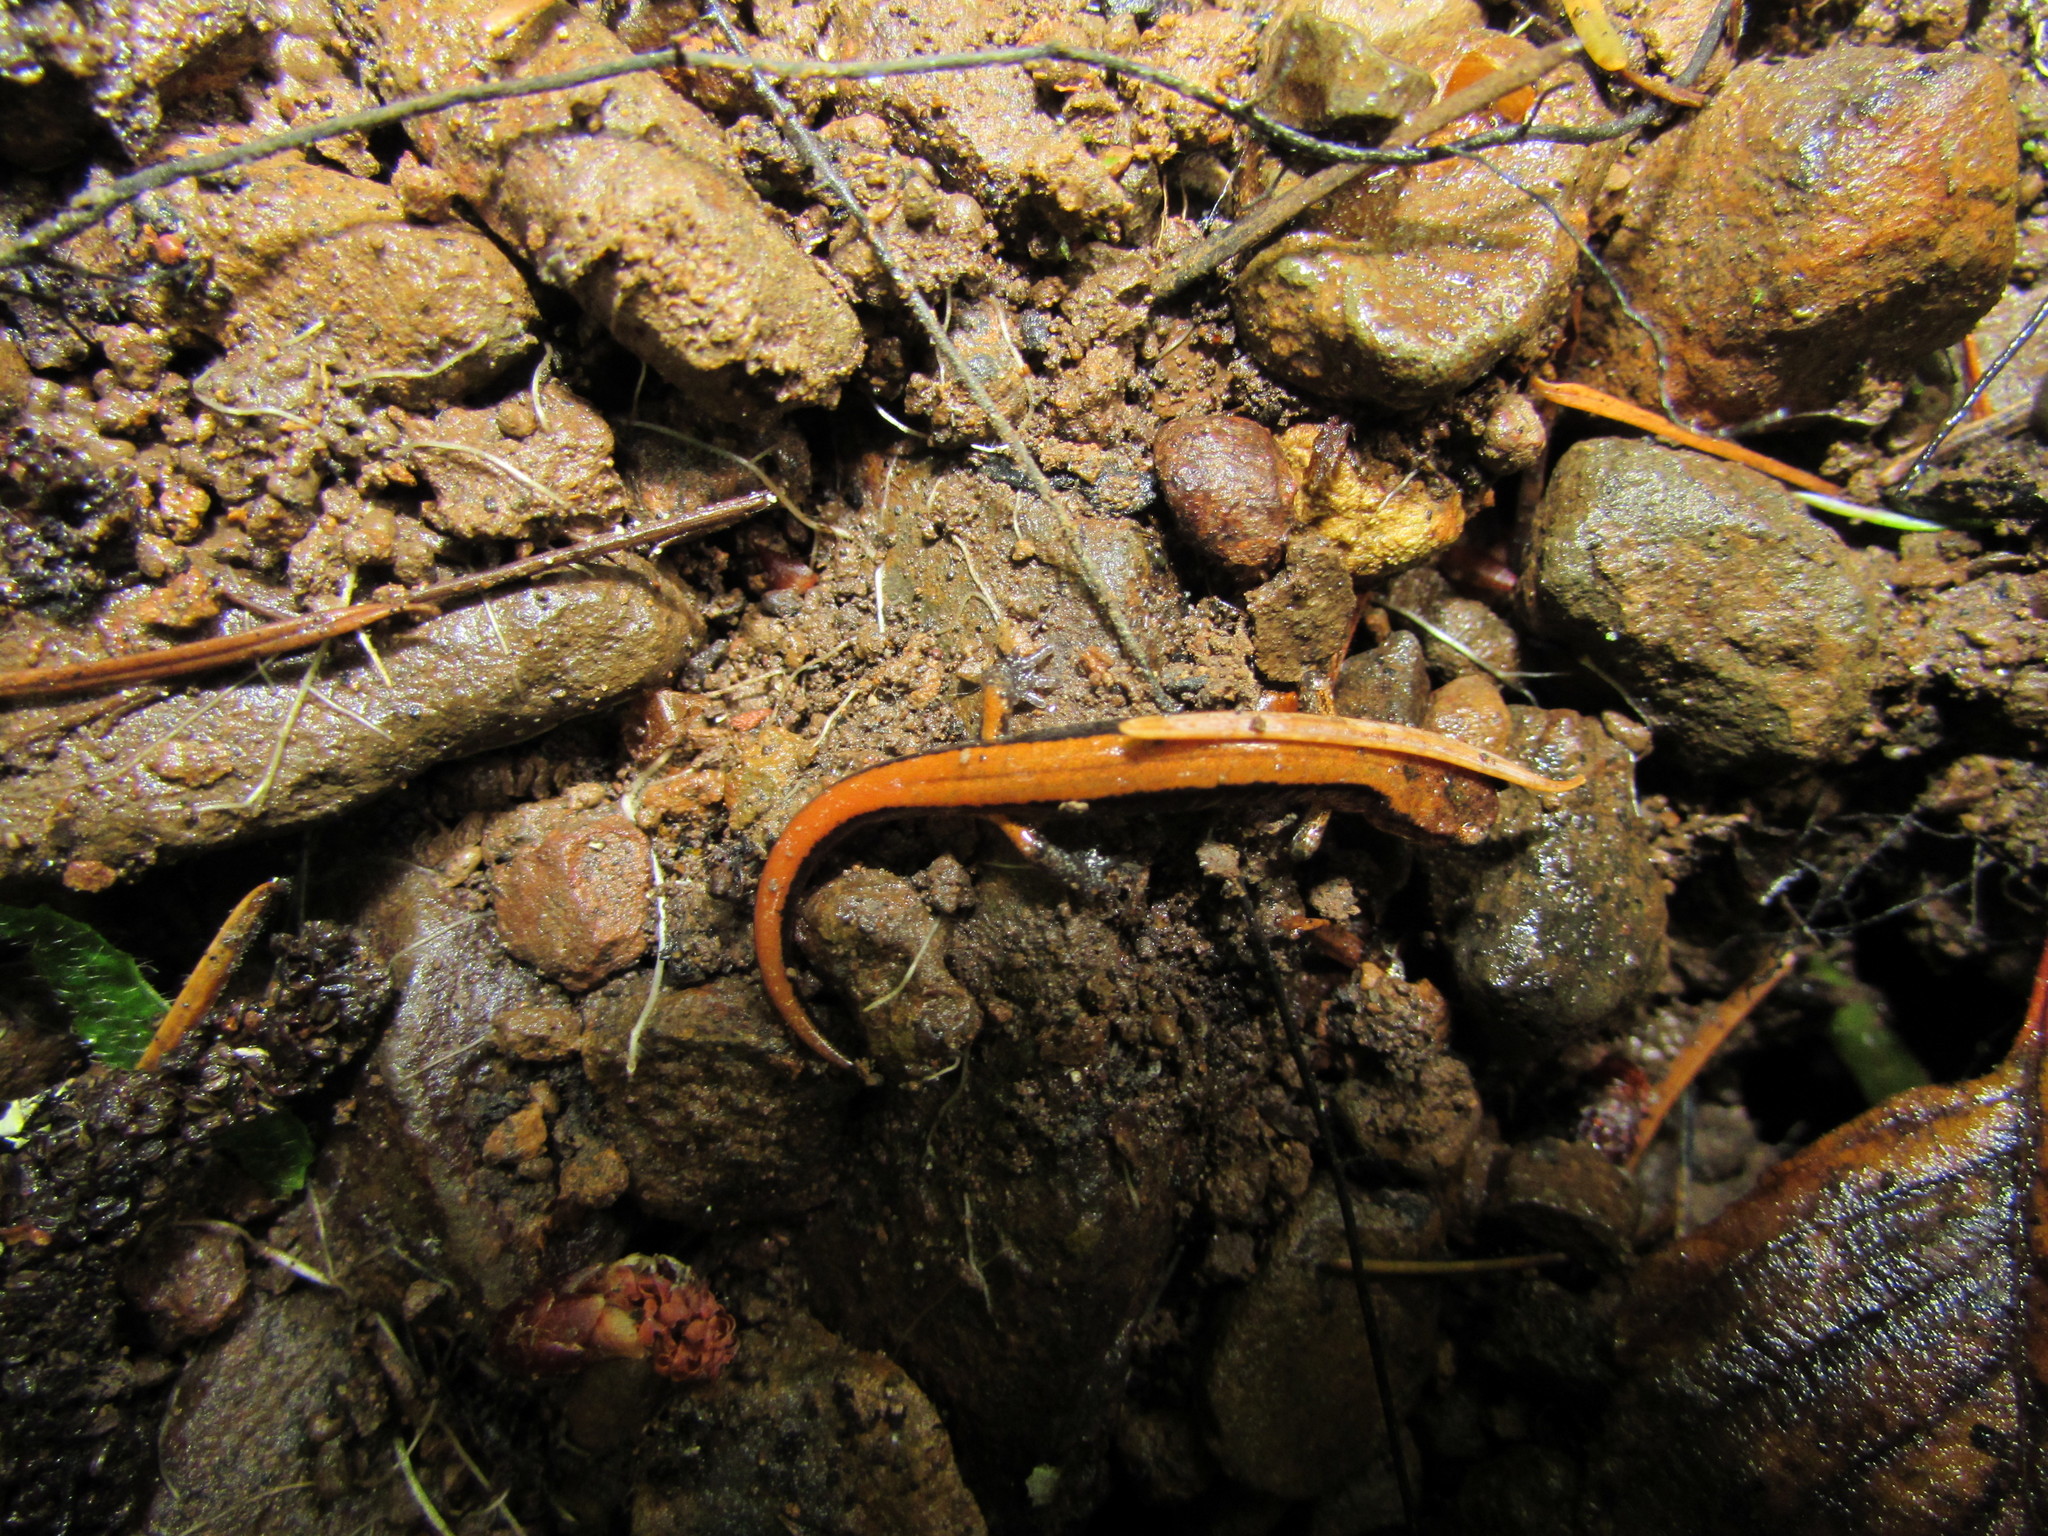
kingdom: Animalia
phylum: Chordata
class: Amphibia
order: Caudata
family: Plethodontidae
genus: Plethodon
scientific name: Plethodon vehiculum
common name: Western red-backed salamander
